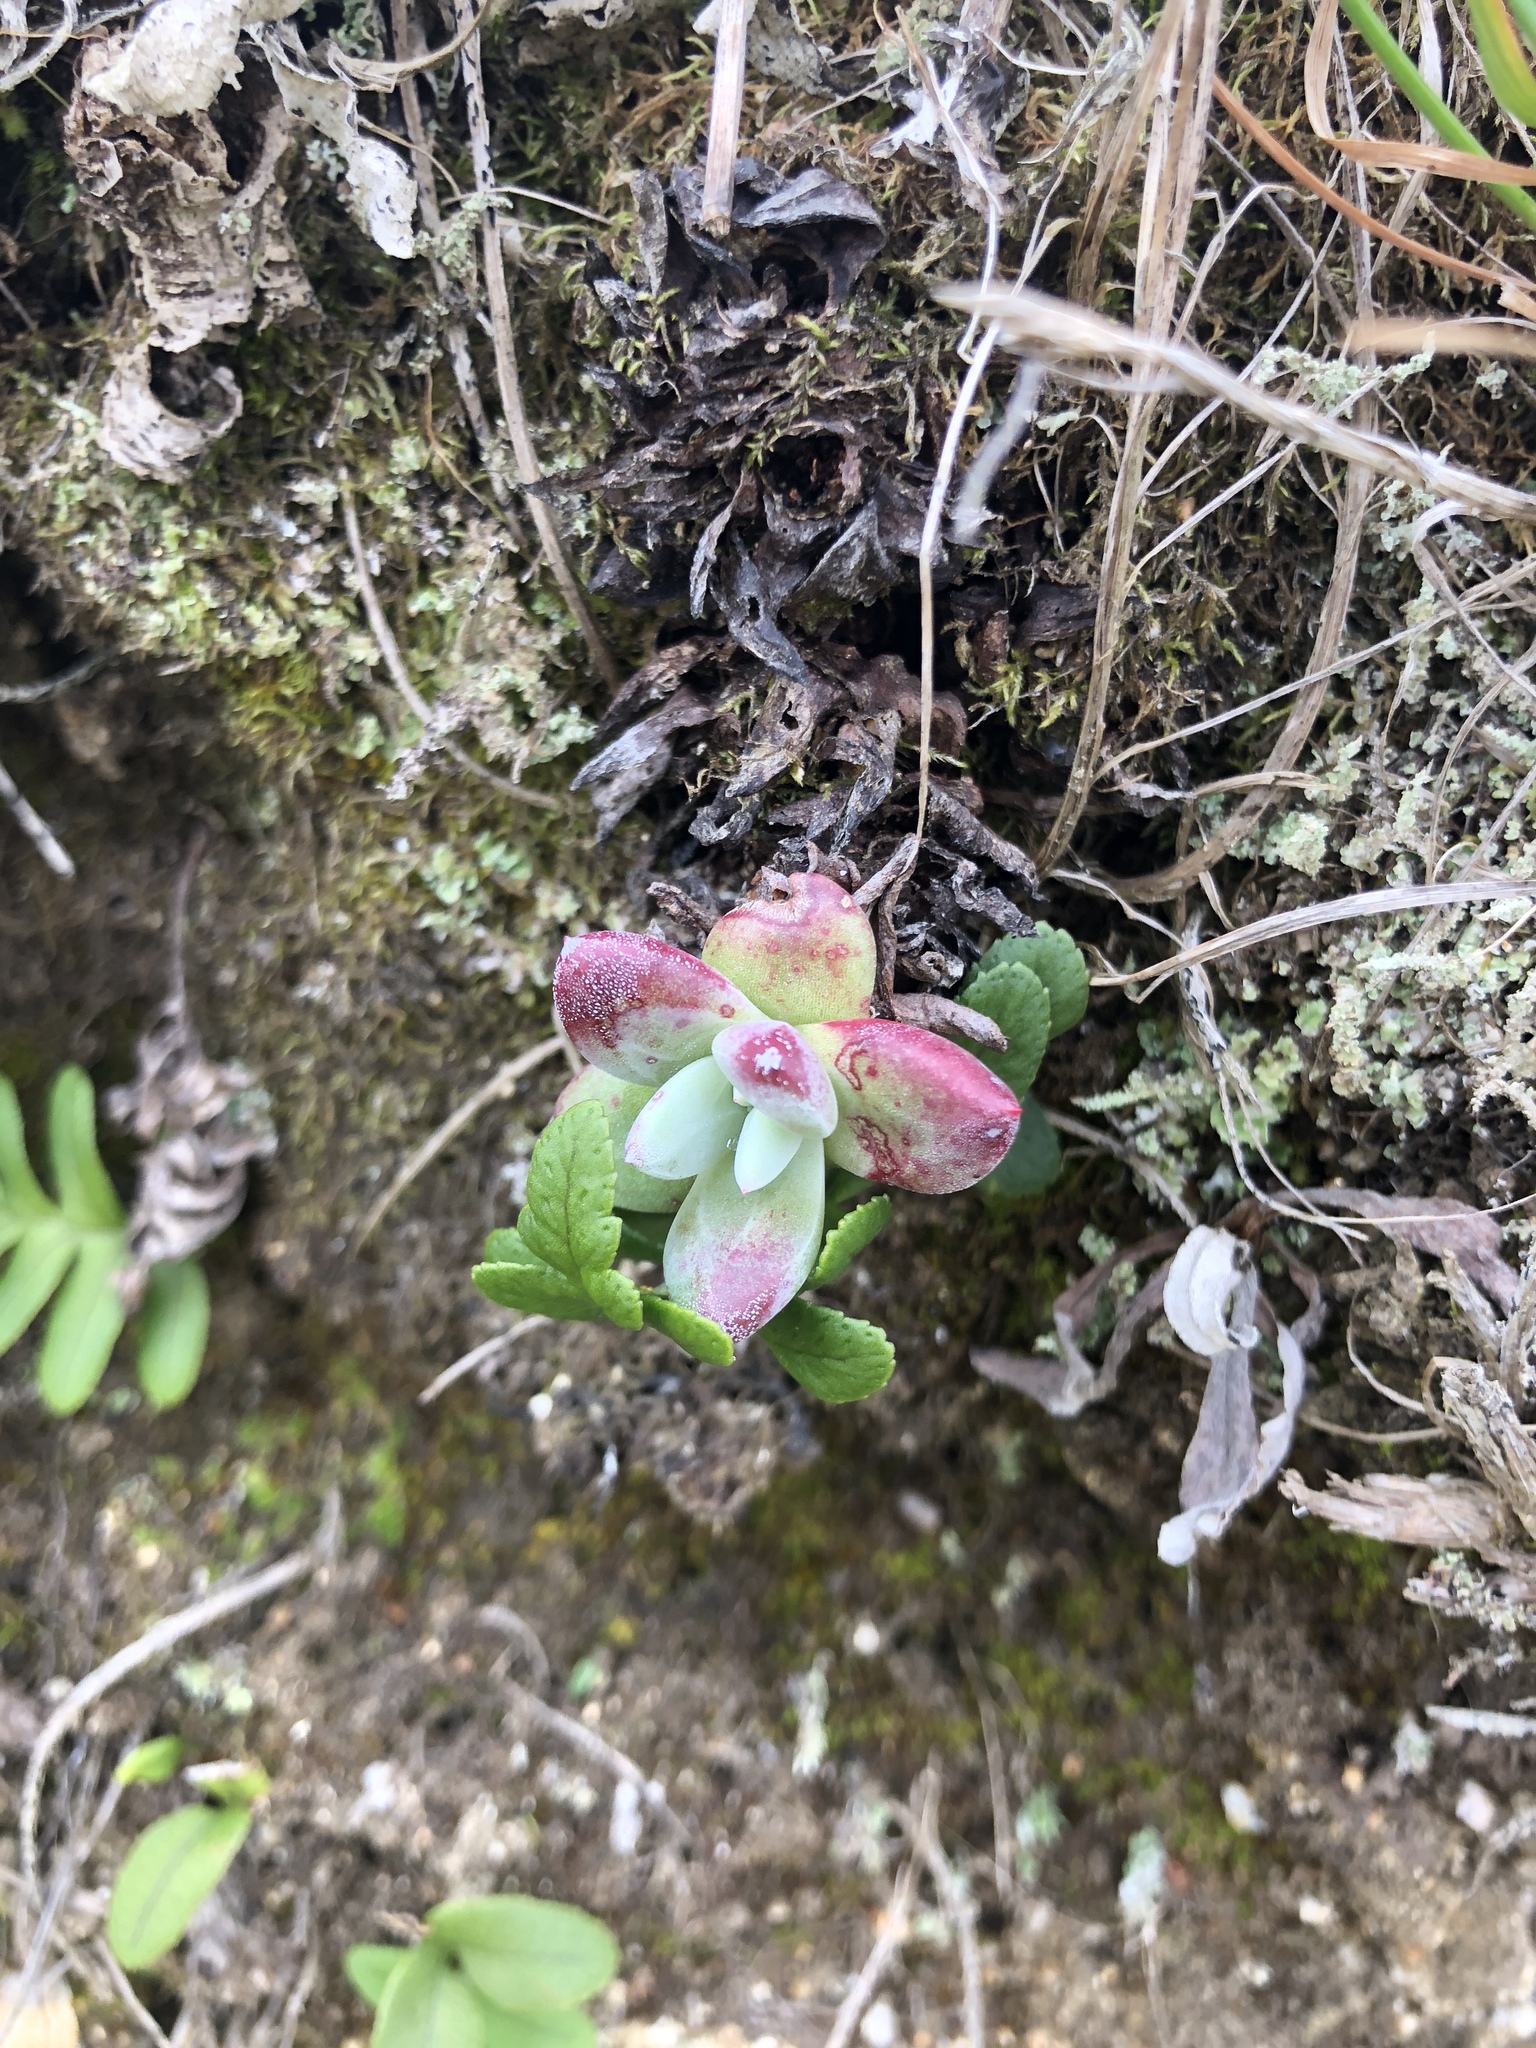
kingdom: Plantae
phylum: Tracheophyta
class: Magnoliopsida
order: Saxifragales
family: Crassulaceae
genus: Dudleya
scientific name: Dudleya farinosa
